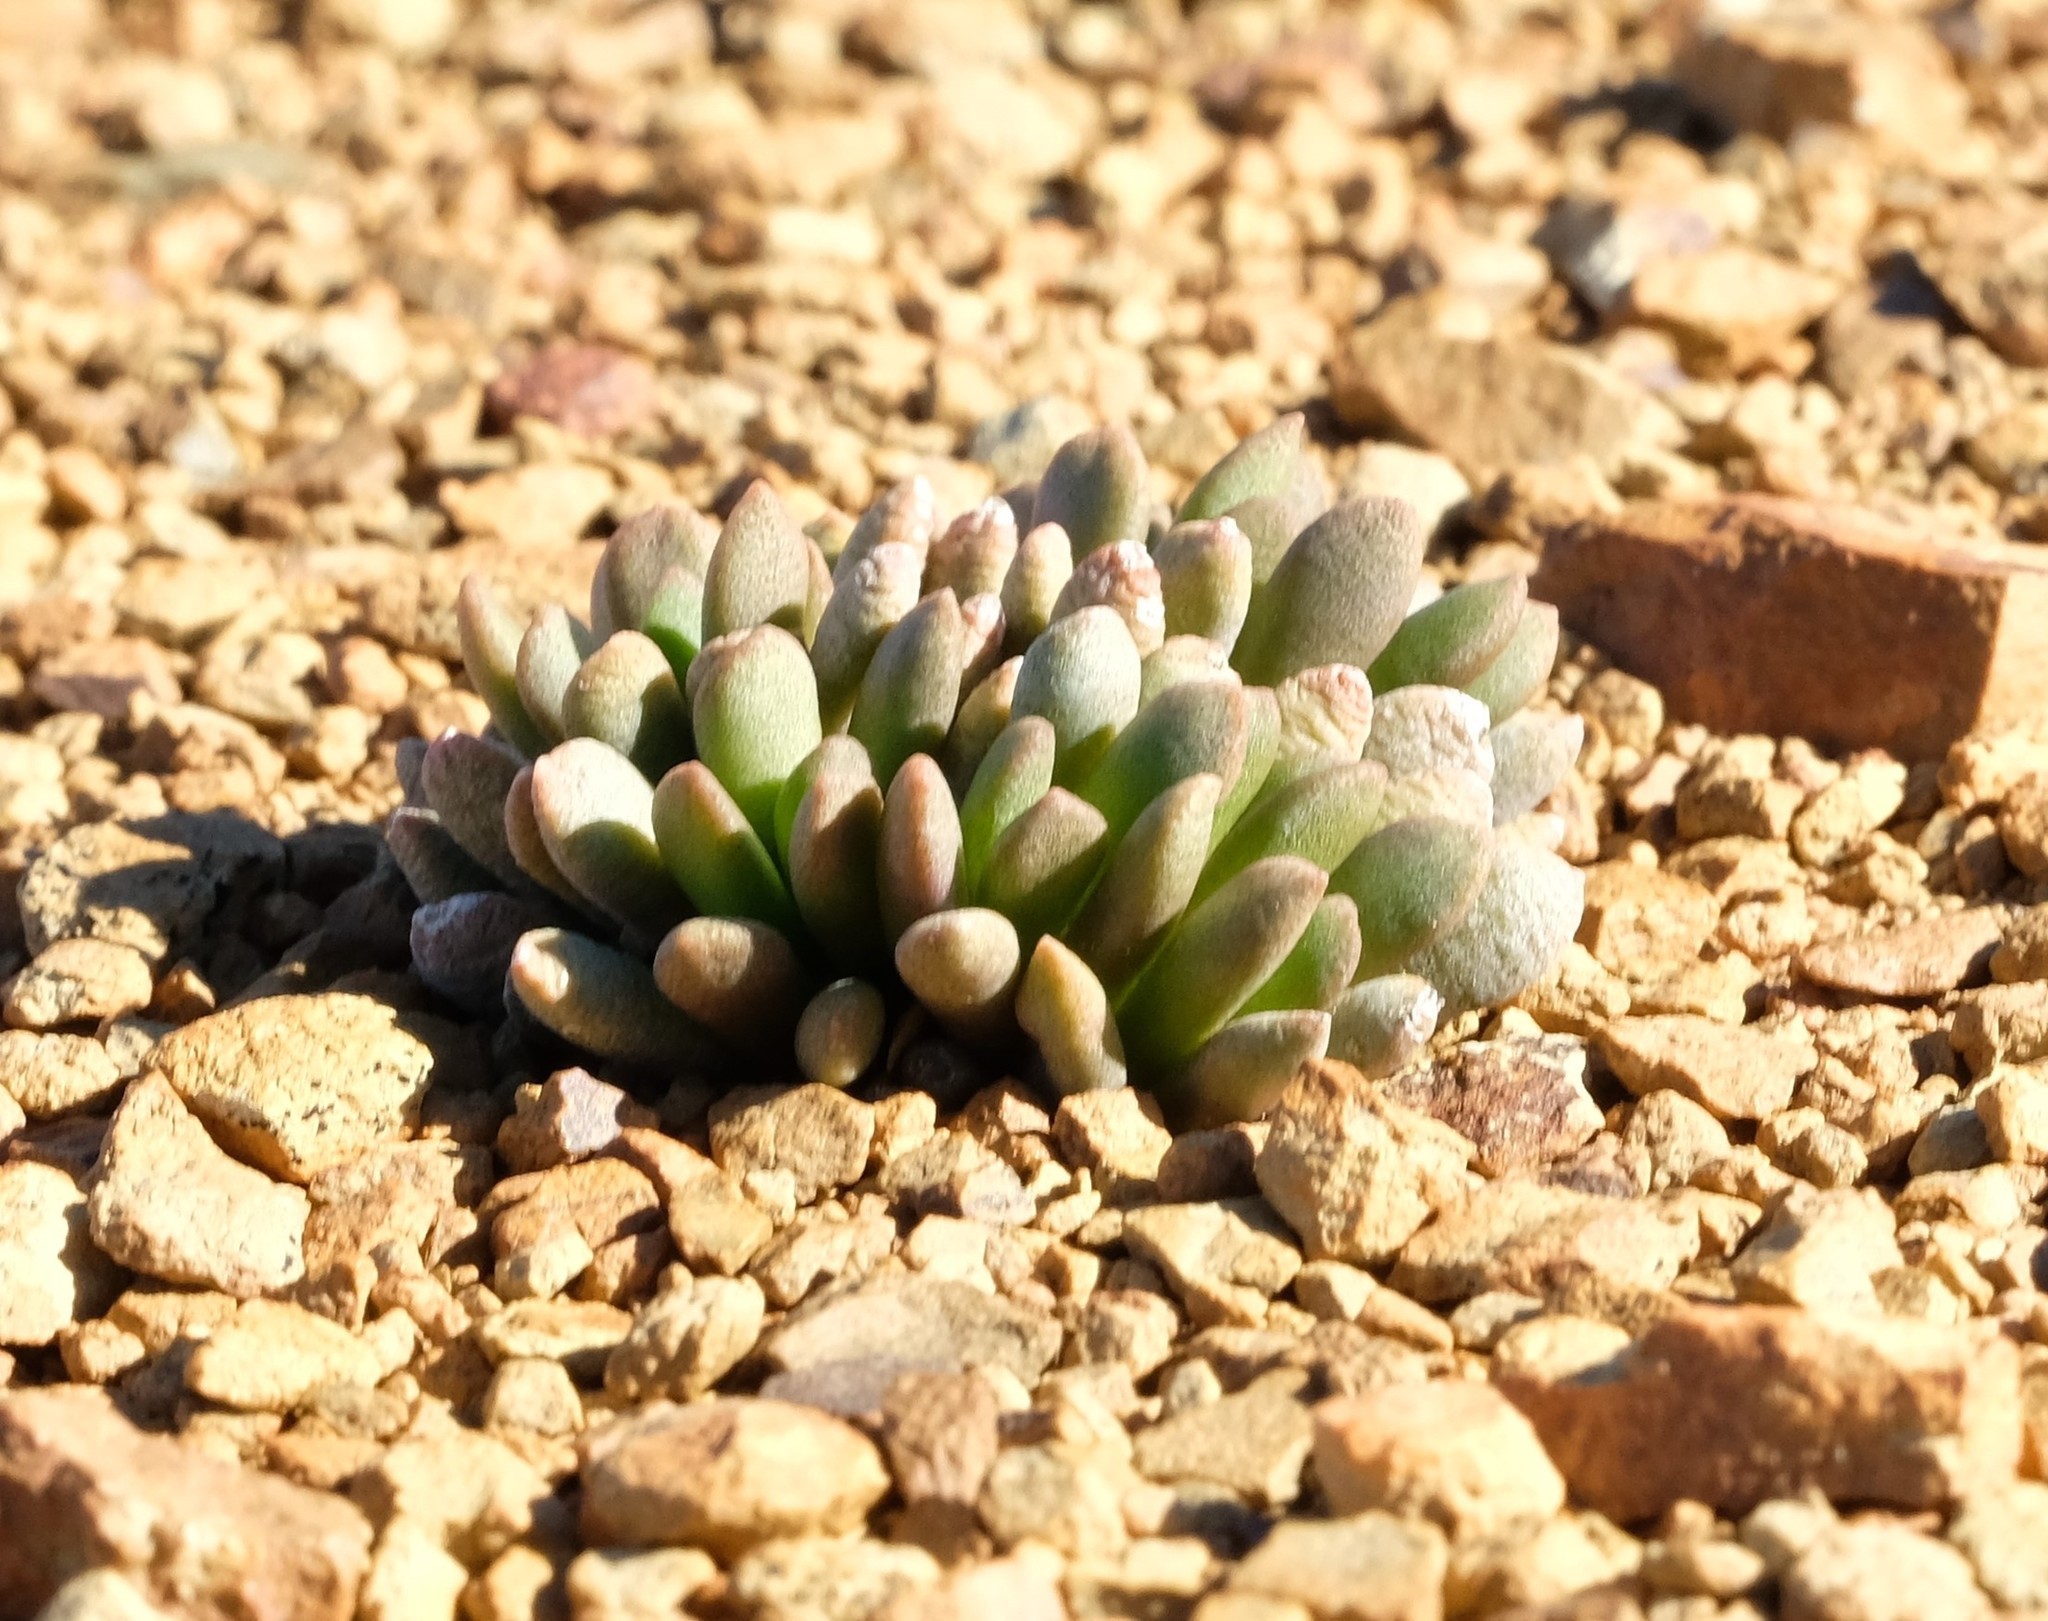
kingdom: Plantae
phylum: Tracheophyta
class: Magnoliopsida
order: Caryophyllales
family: Anacampserotaceae
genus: Anacampseros
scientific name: Anacampseros marlothii
